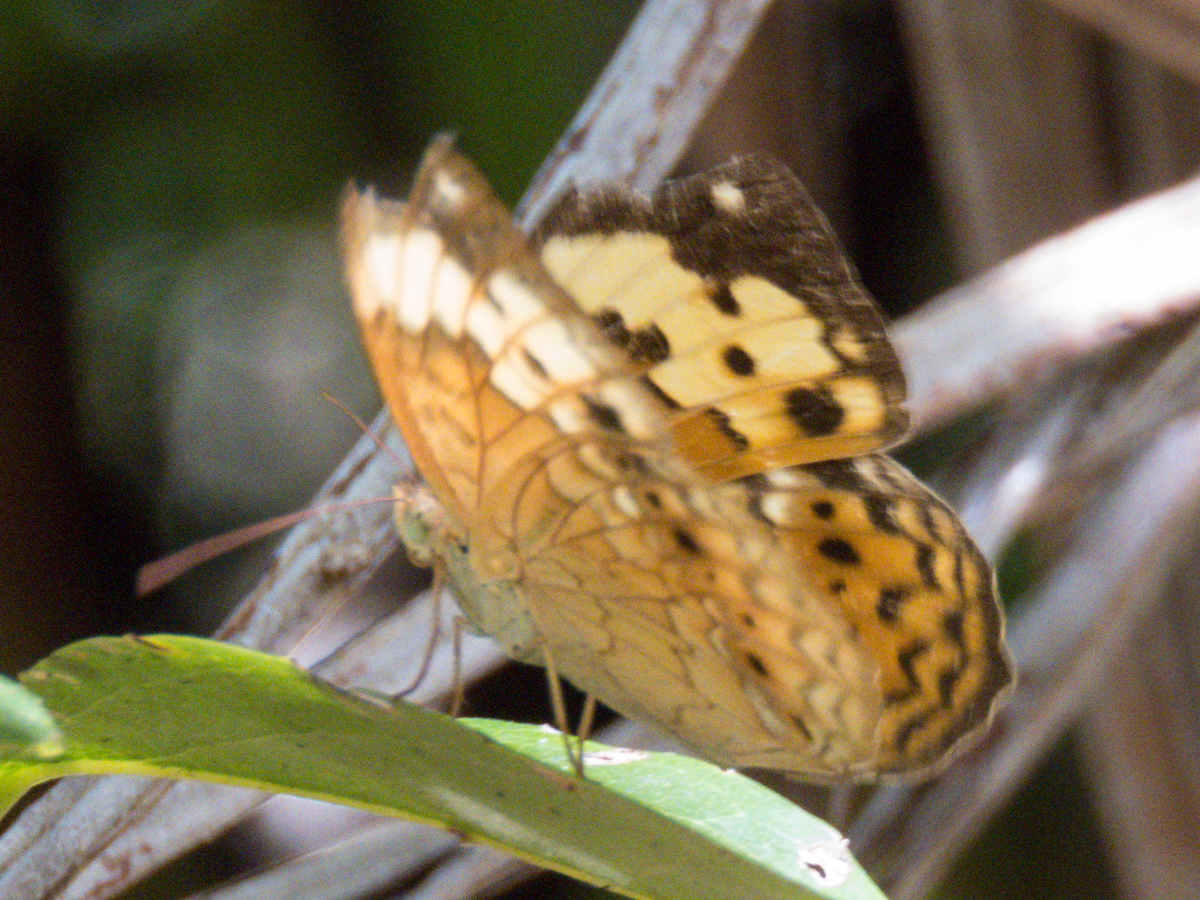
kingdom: Animalia
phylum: Arthropoda
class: Insecta
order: Lepidoptera
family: Nymphalidae
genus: Cupha
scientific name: Cupha erymanthis
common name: Rustic
